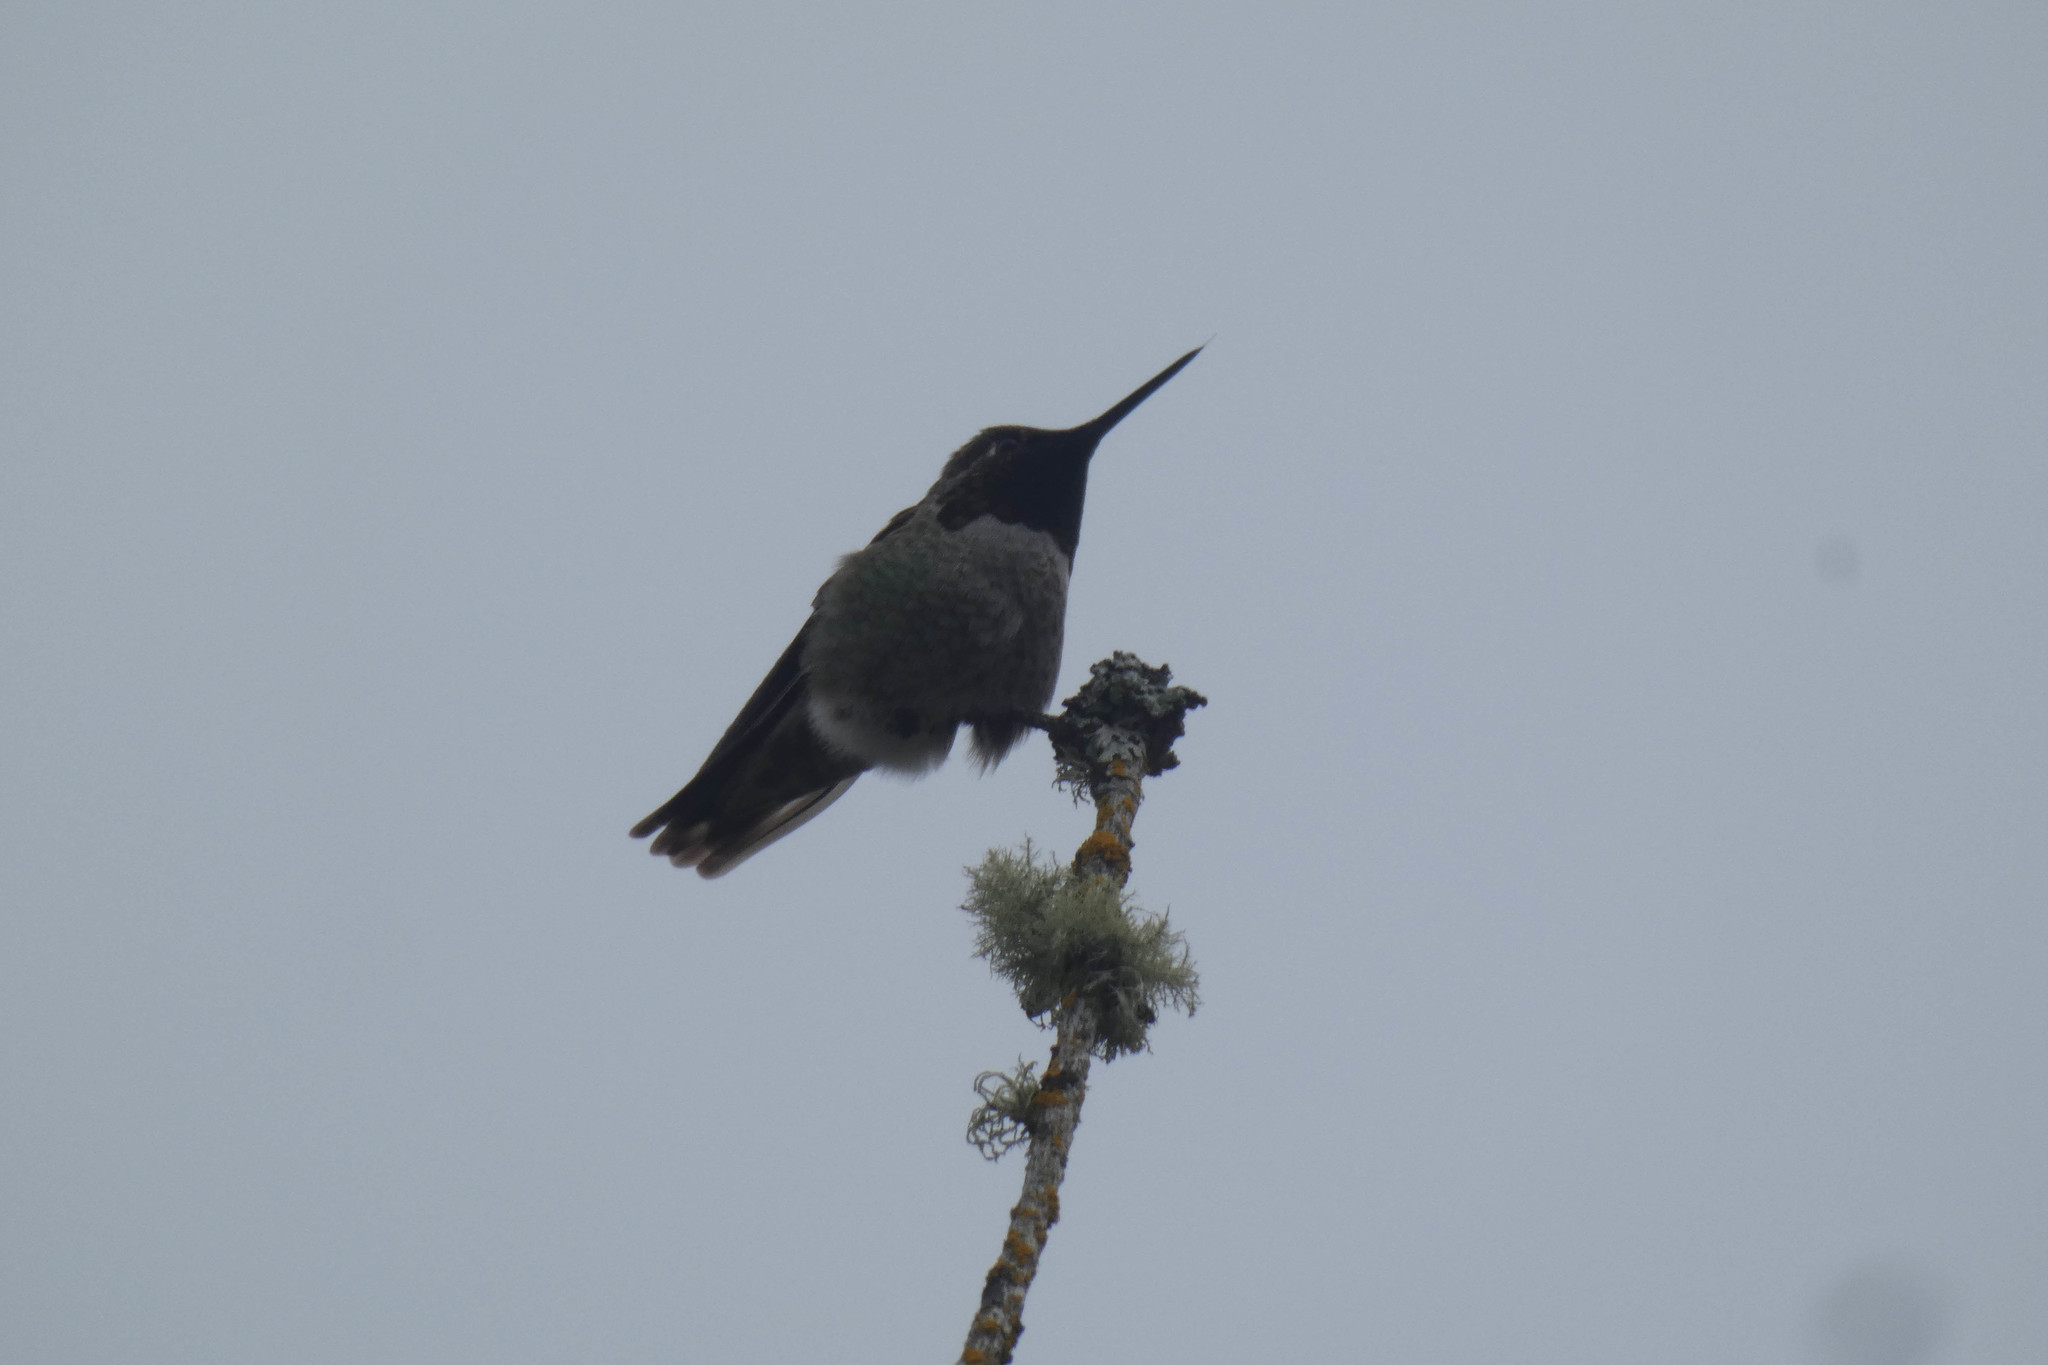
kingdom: Animalia
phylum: Chordata
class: Aves
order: Apodiformes
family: Trochilidae
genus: Calypte
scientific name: Calypte anna
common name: Anna's hummingbird
